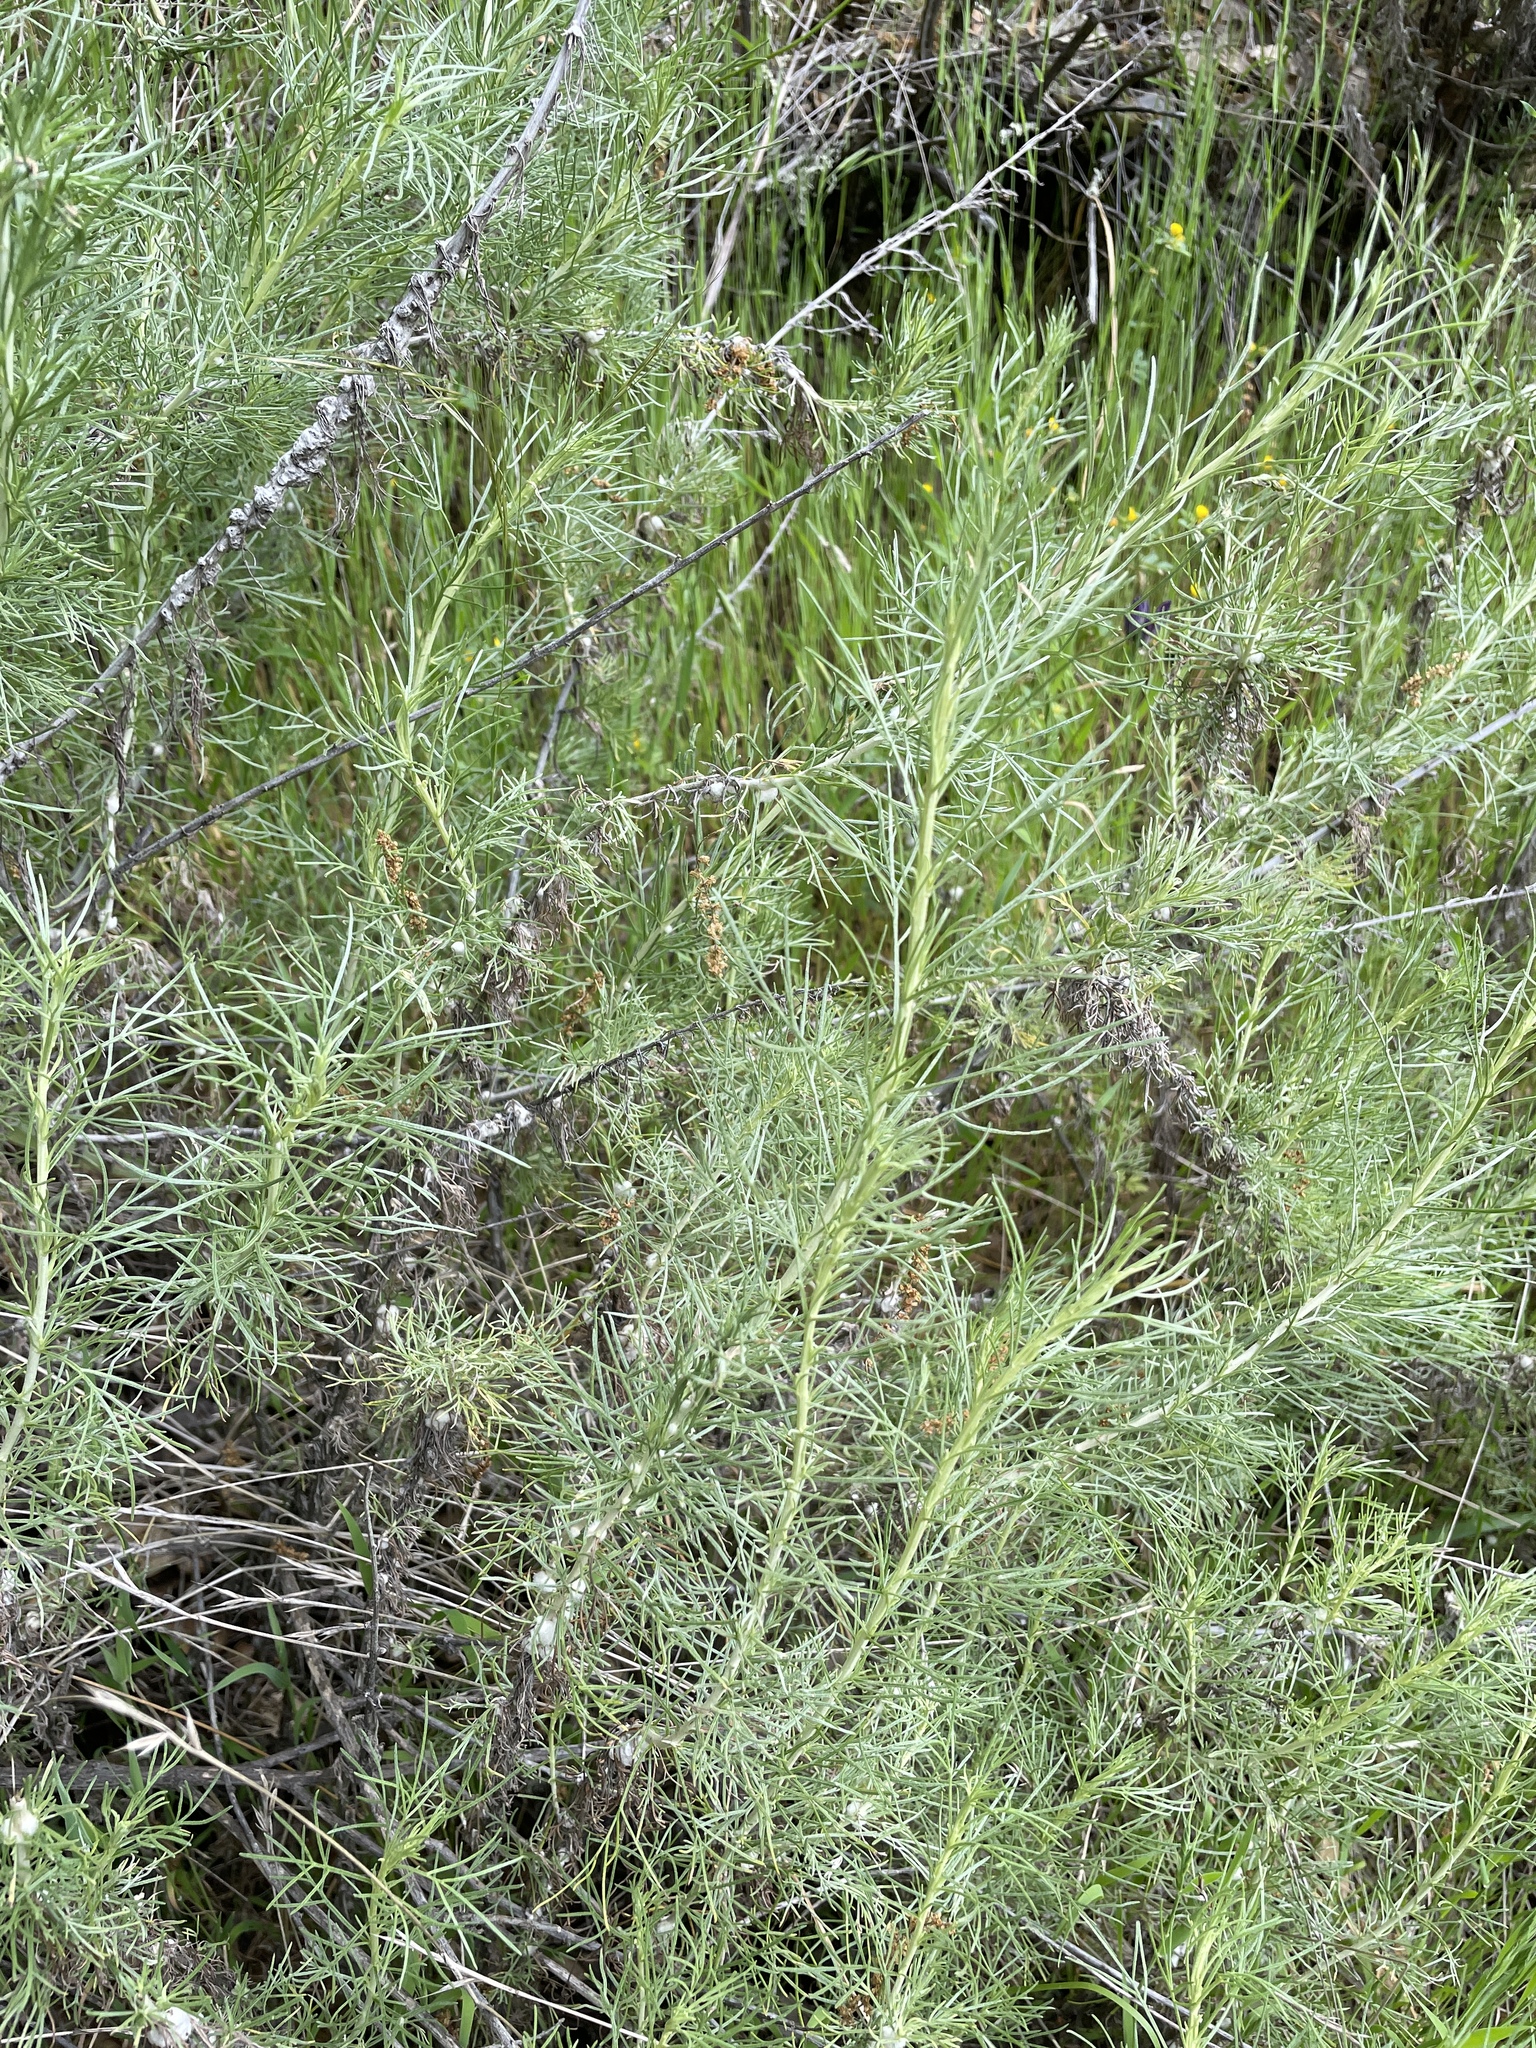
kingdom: Plantae
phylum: Tracheophyta
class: Magnoliopsida
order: Asterales
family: Asteraceae
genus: Artemisia
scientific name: Artemisia californica
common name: California sagebrush
